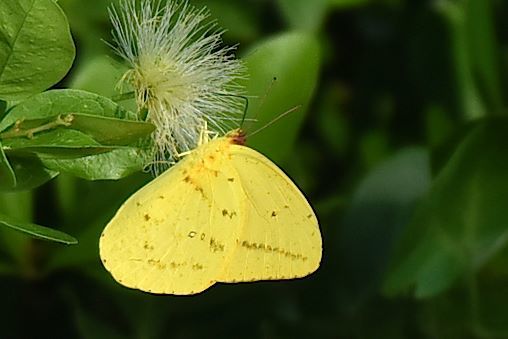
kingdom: Animalia
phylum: Arthropoda
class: Insecta
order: Lepidoptera
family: Pieridae
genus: Phoebis
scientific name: Phoebis agarithe
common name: Large orange sulphur
